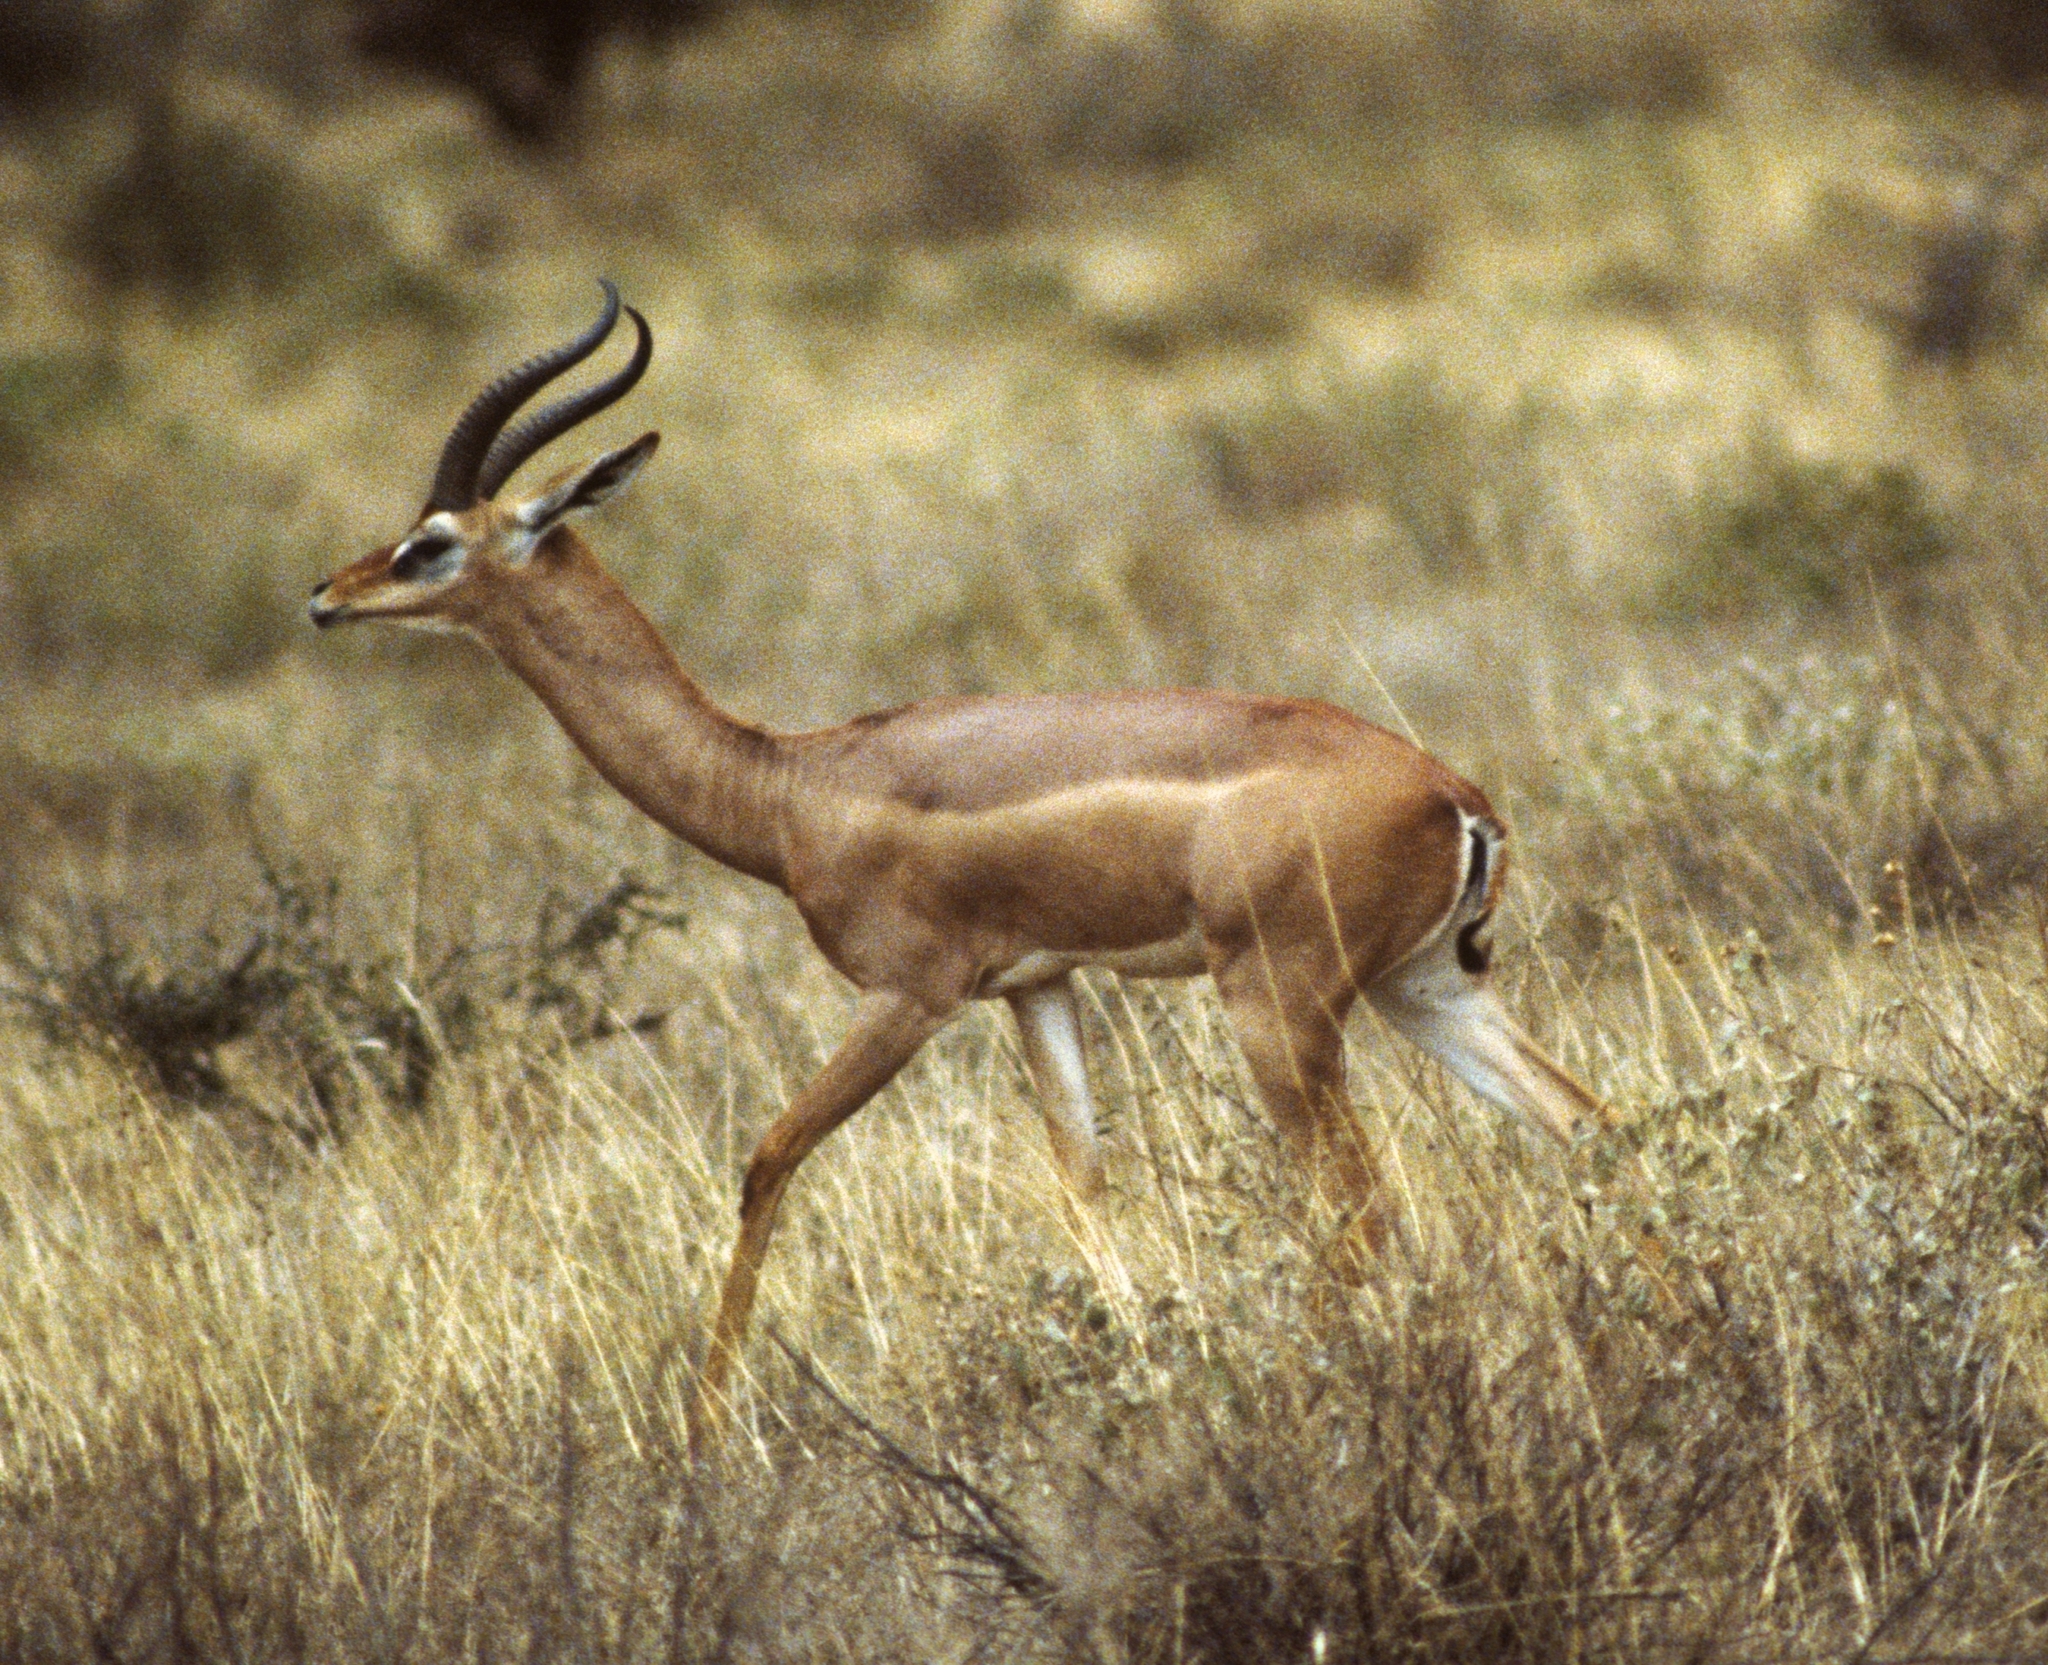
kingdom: Animalia
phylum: Chordata
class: Mammalia
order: Artiodactyla
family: Bovidae
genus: Litocranius
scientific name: Litocranius walleri
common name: Gerenuk
